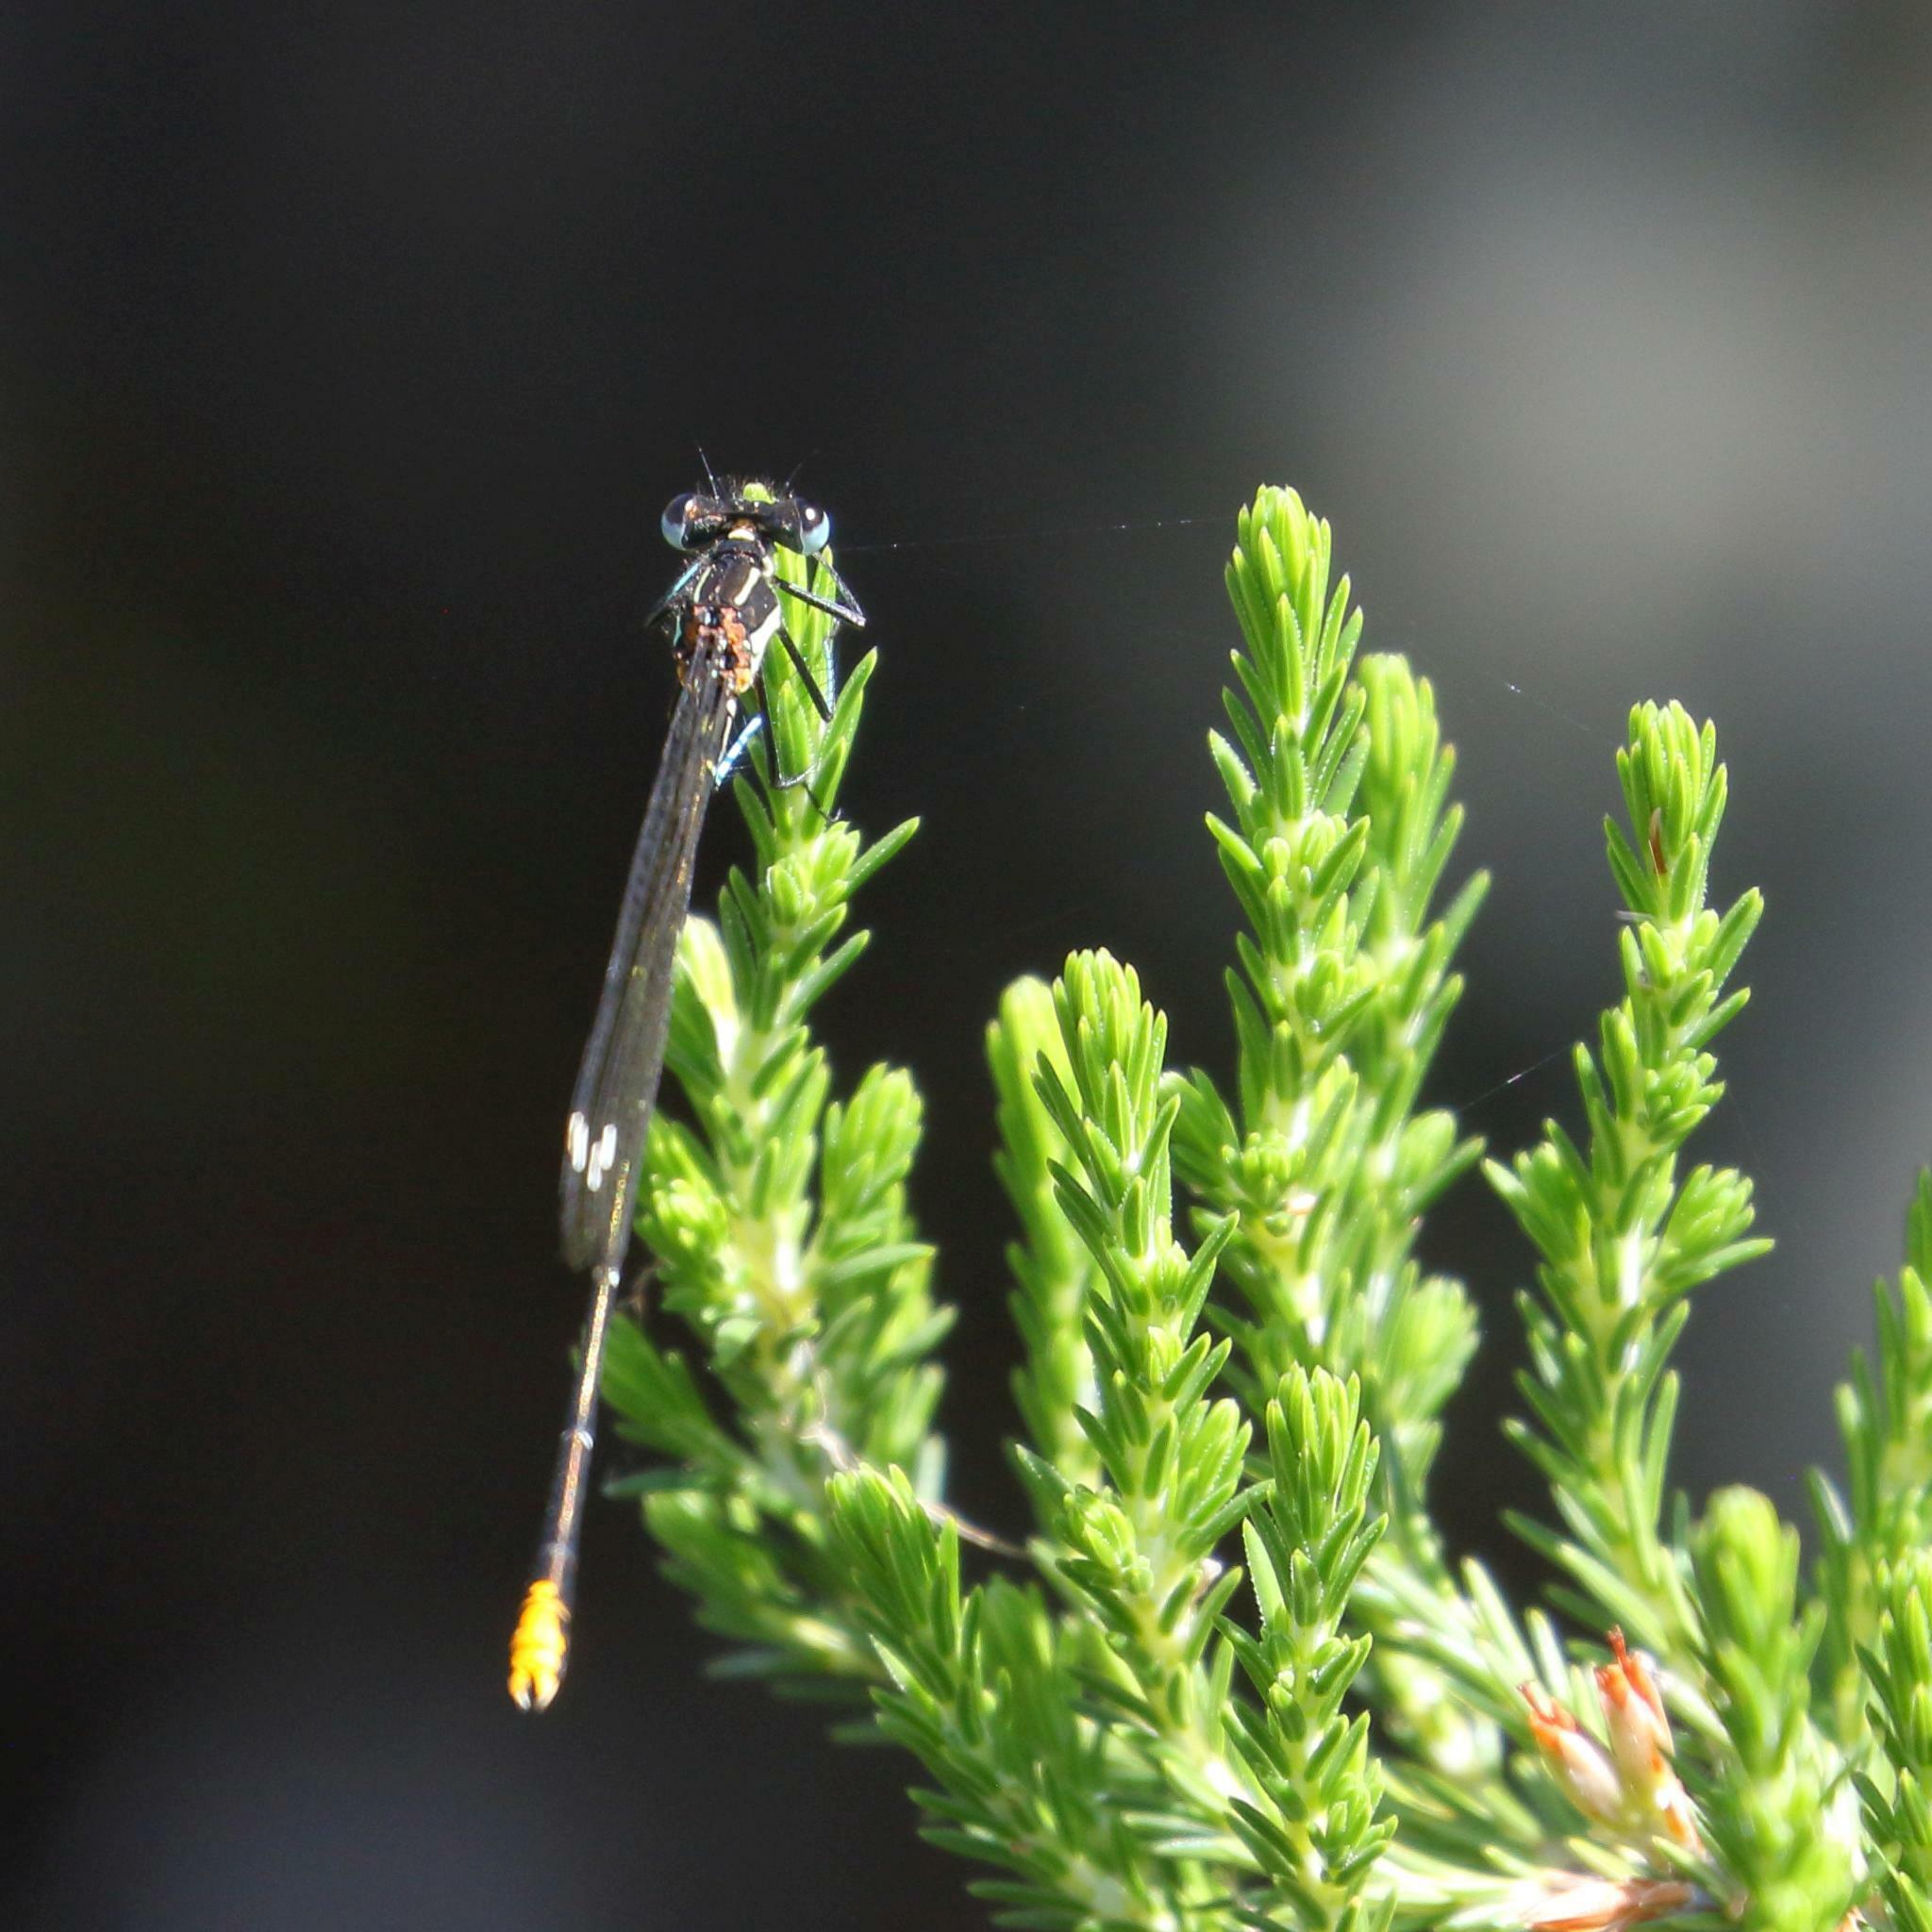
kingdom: Animalia
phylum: Arthropoda
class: Insecta
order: Odonata
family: Platycnemididae
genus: Allocnemis
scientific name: Allocnemis leucosticta
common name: Goldtail
